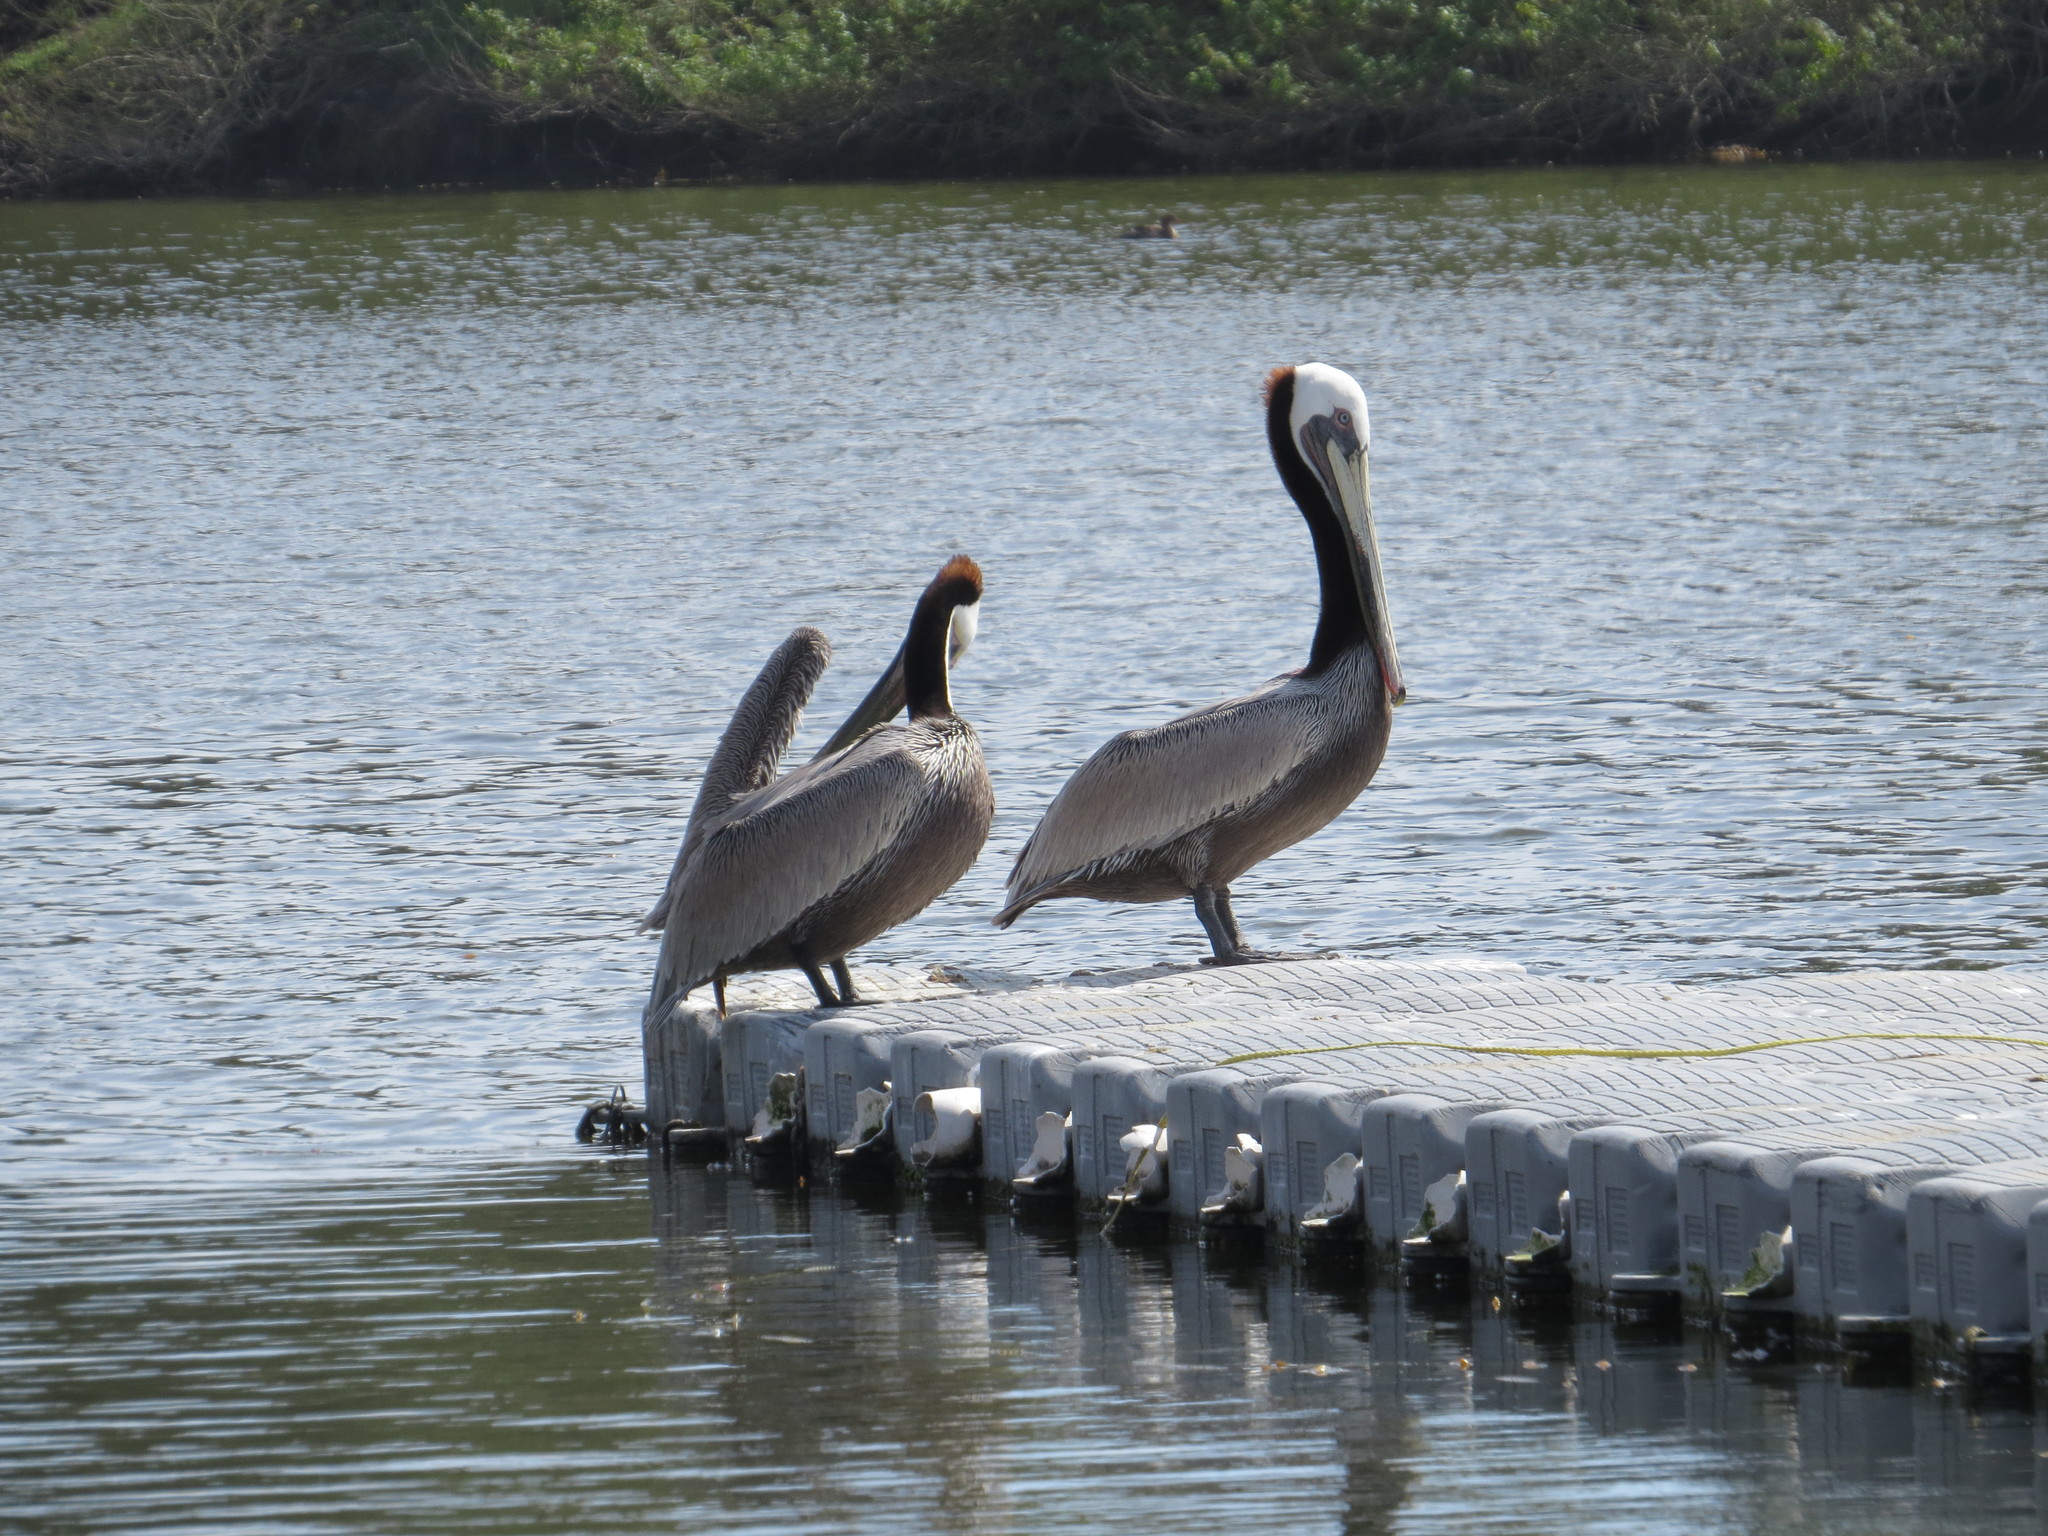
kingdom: Animalia
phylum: Chordata
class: Aves
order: Pelecaniformes
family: Pelecanidae
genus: Pelecanus
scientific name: Pelecanus occidentalis
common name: Brown pelican
